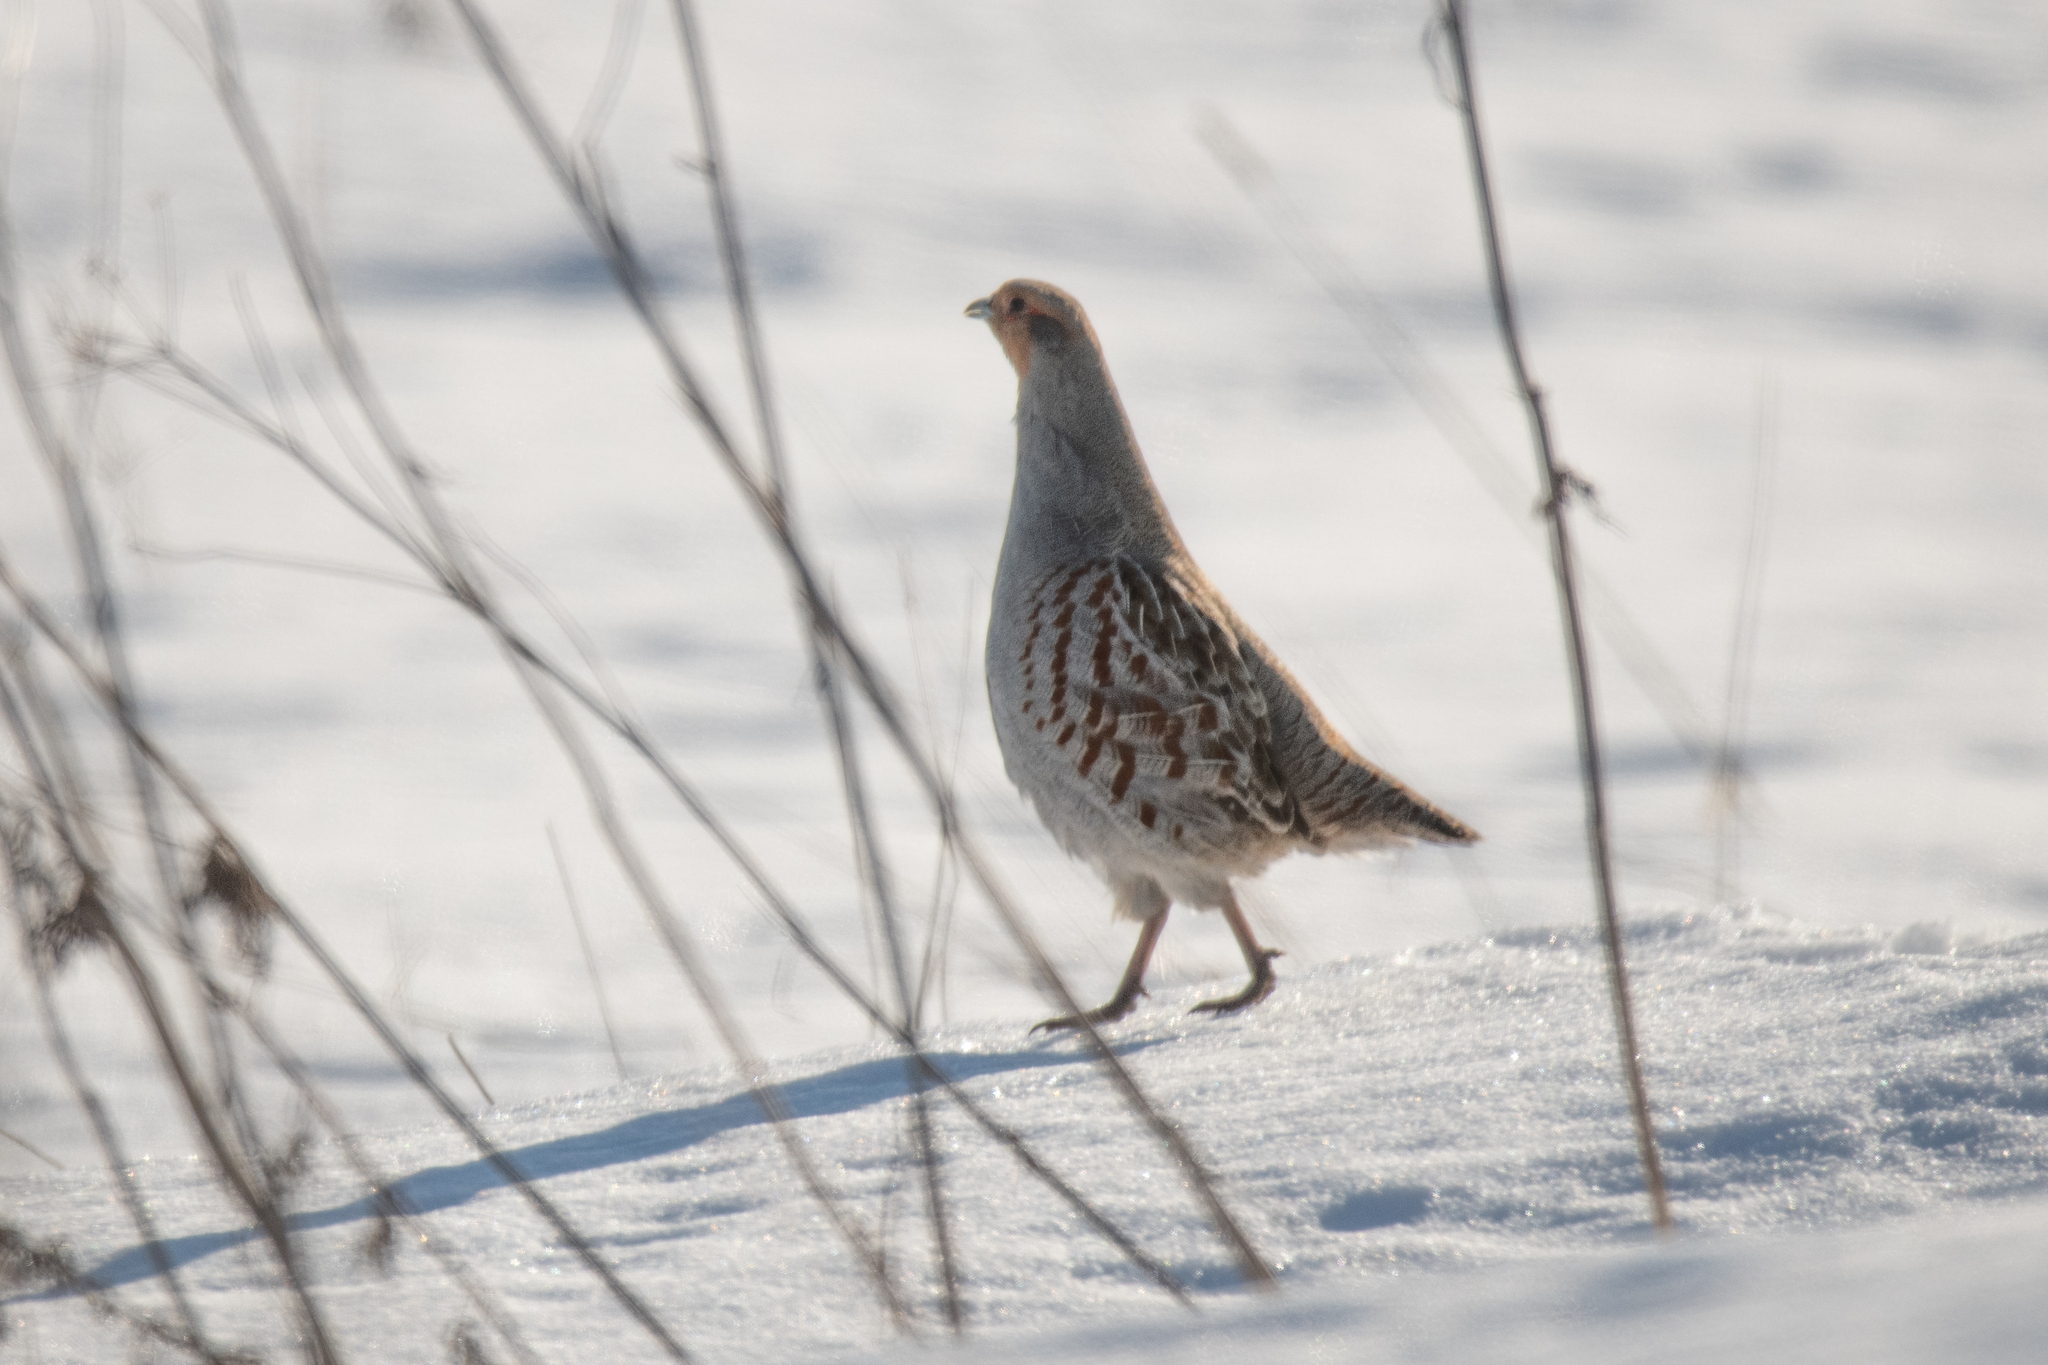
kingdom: Animalia
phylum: Chordata
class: Aves
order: Galliformes
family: Phasianidae
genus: Perdix
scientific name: Perdix perdix
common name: Grey partridge
